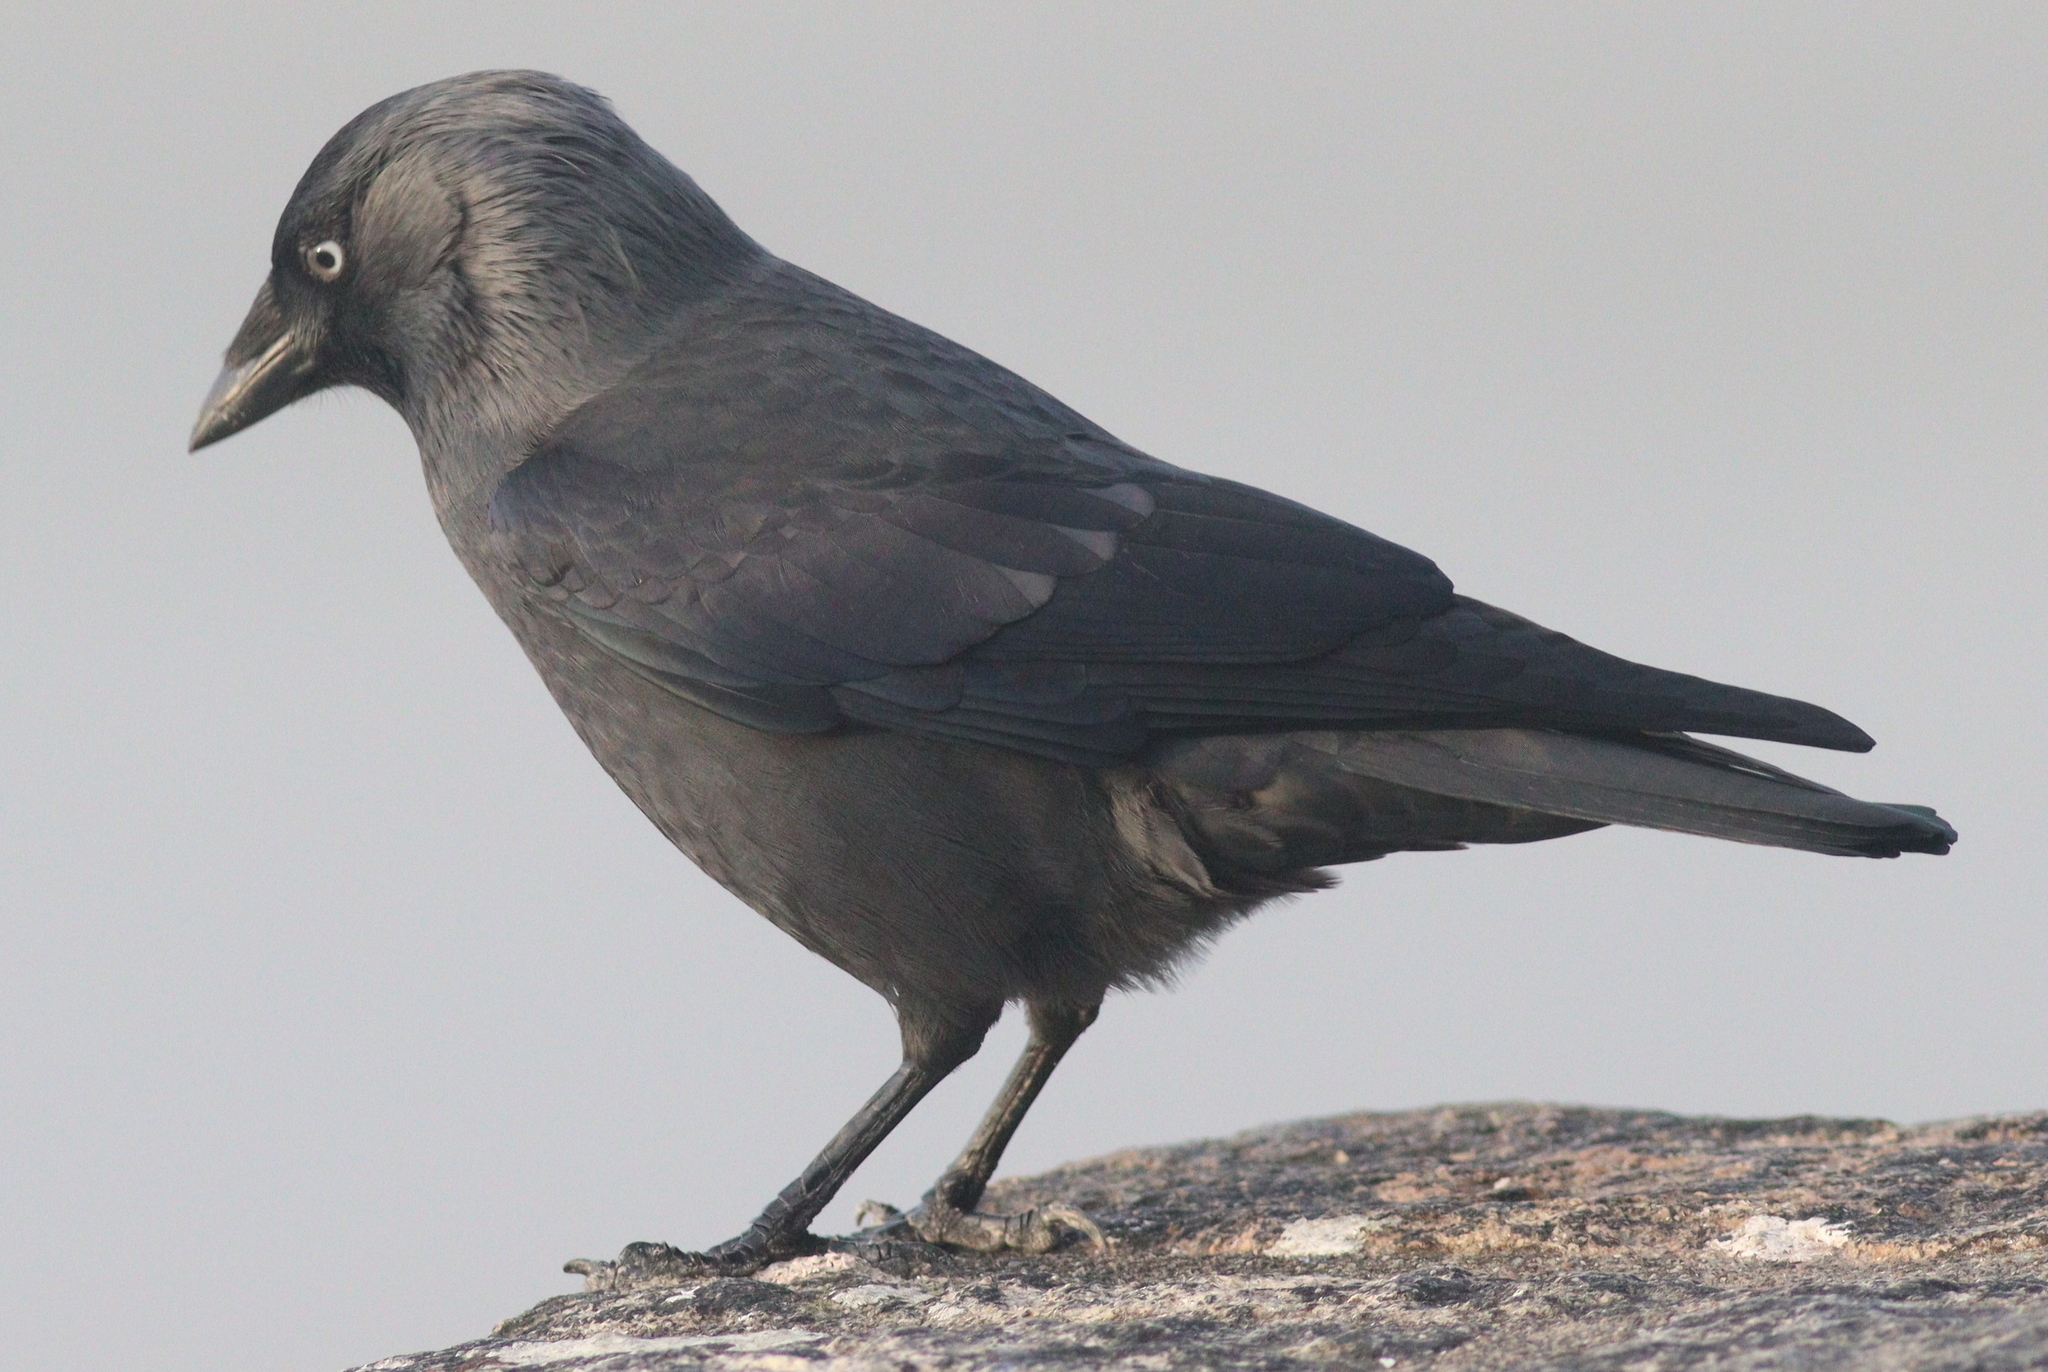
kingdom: Animalia
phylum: Chordata
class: Aves
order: Passeriformes
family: Corvidae
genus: Coloeus
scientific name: Coloeus monedula
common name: Western jackdaw
